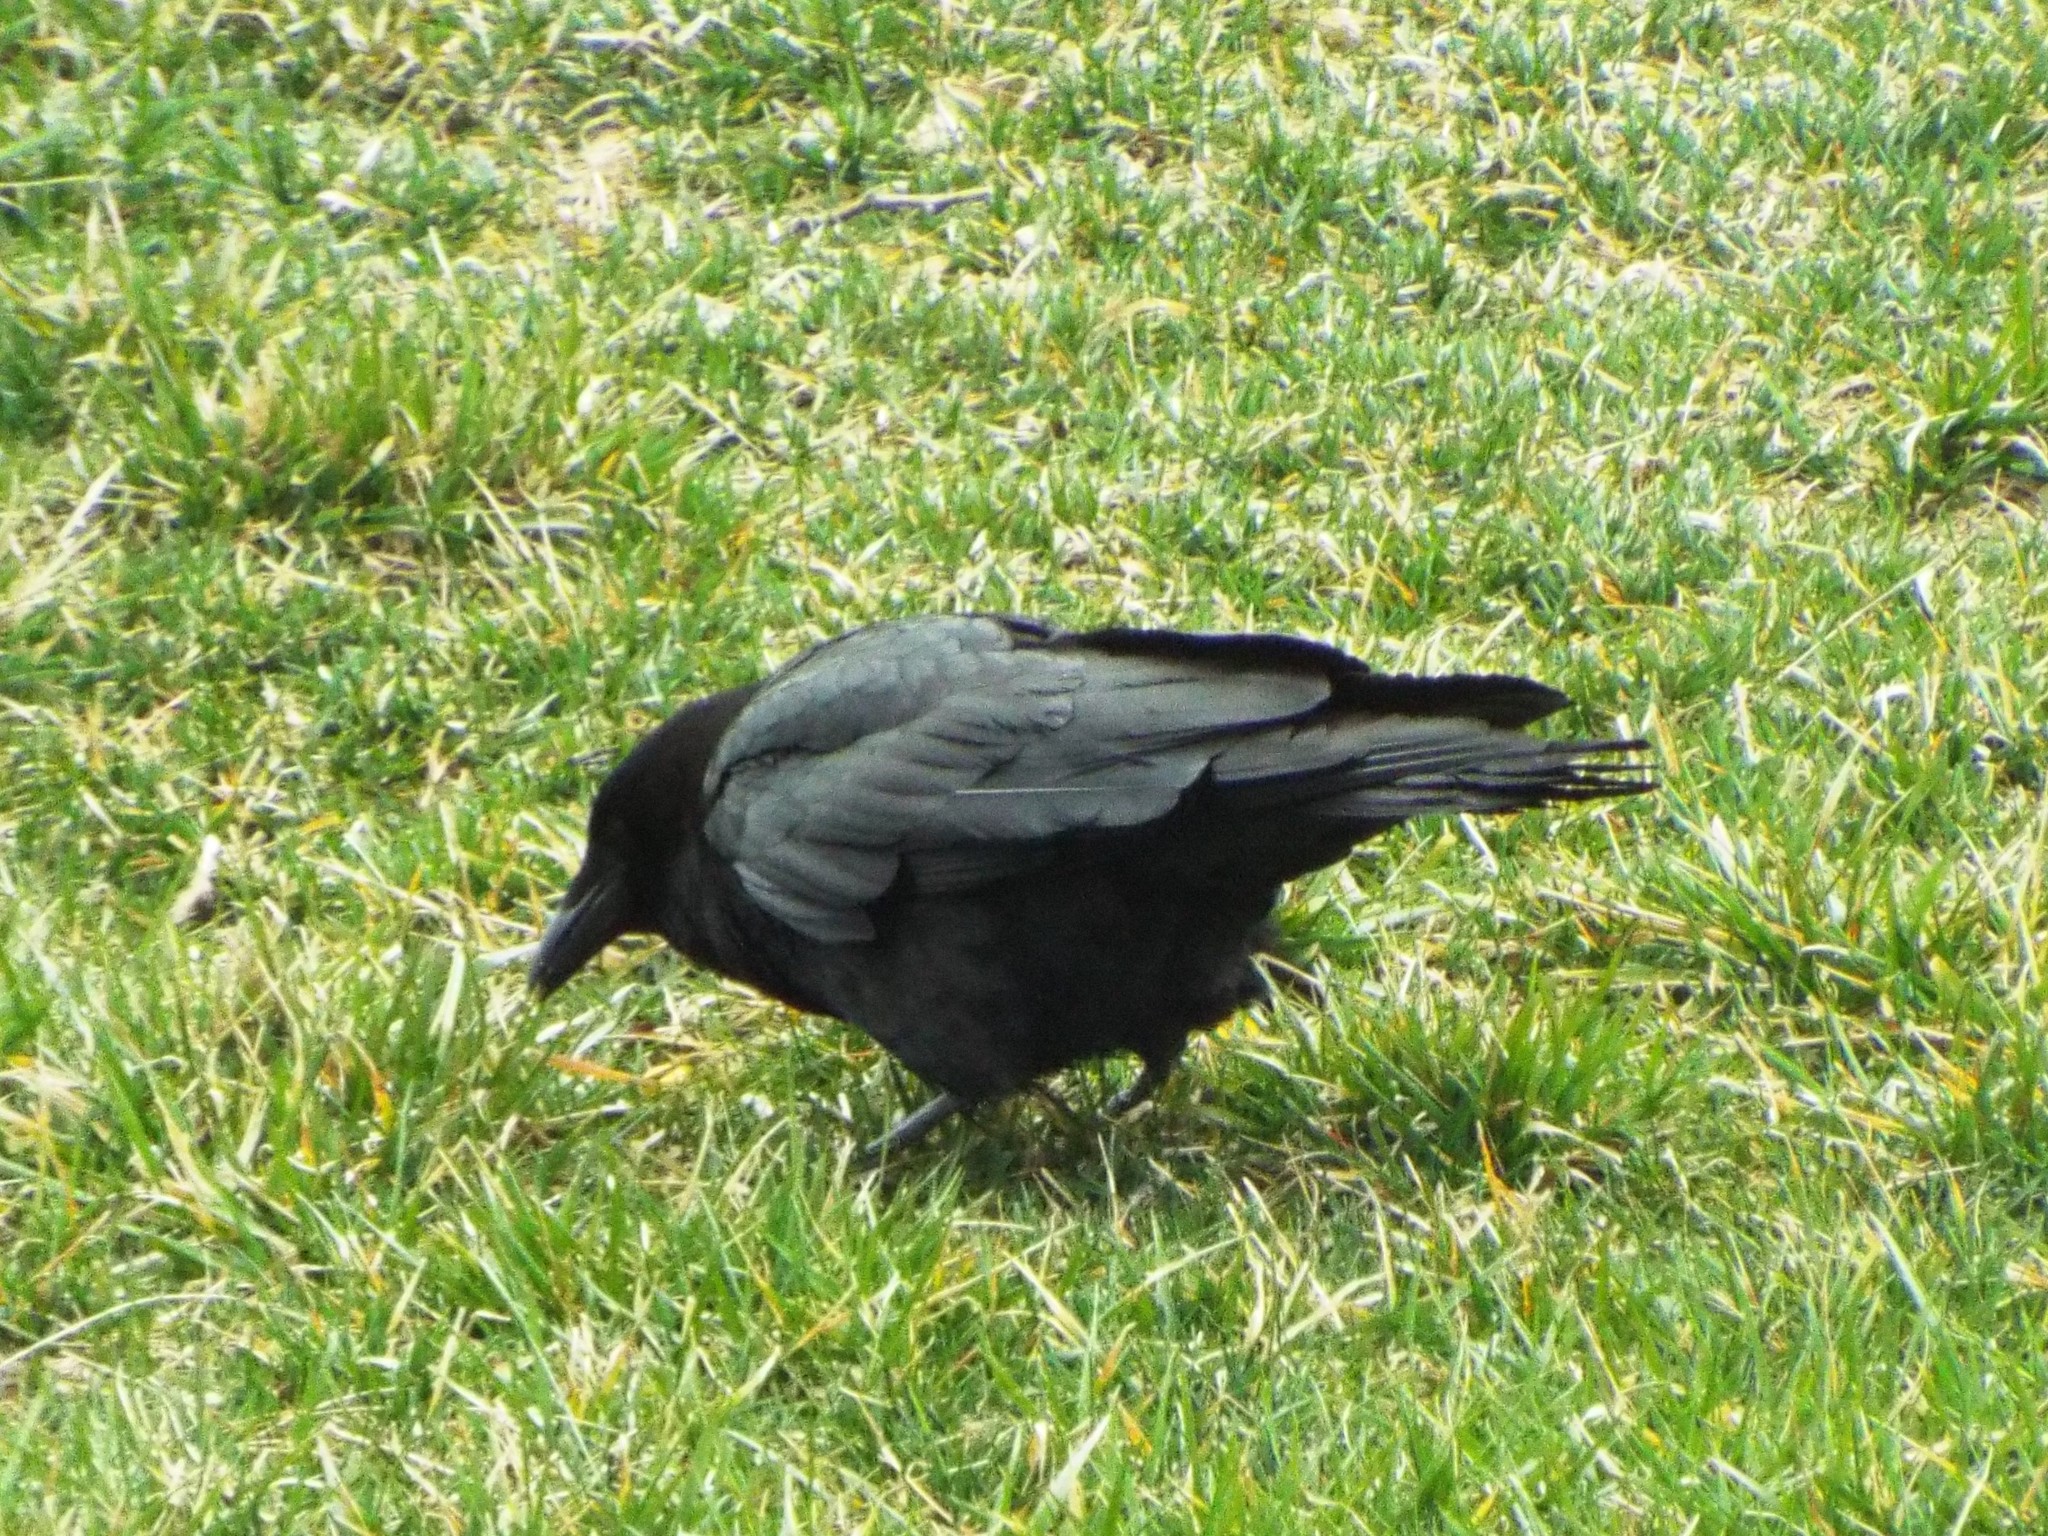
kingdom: Animalia
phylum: Chordata
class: Aves
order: Passeriformes
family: Corvidae
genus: Corvus
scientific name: Corvus brachyrhynchos
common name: American crow
